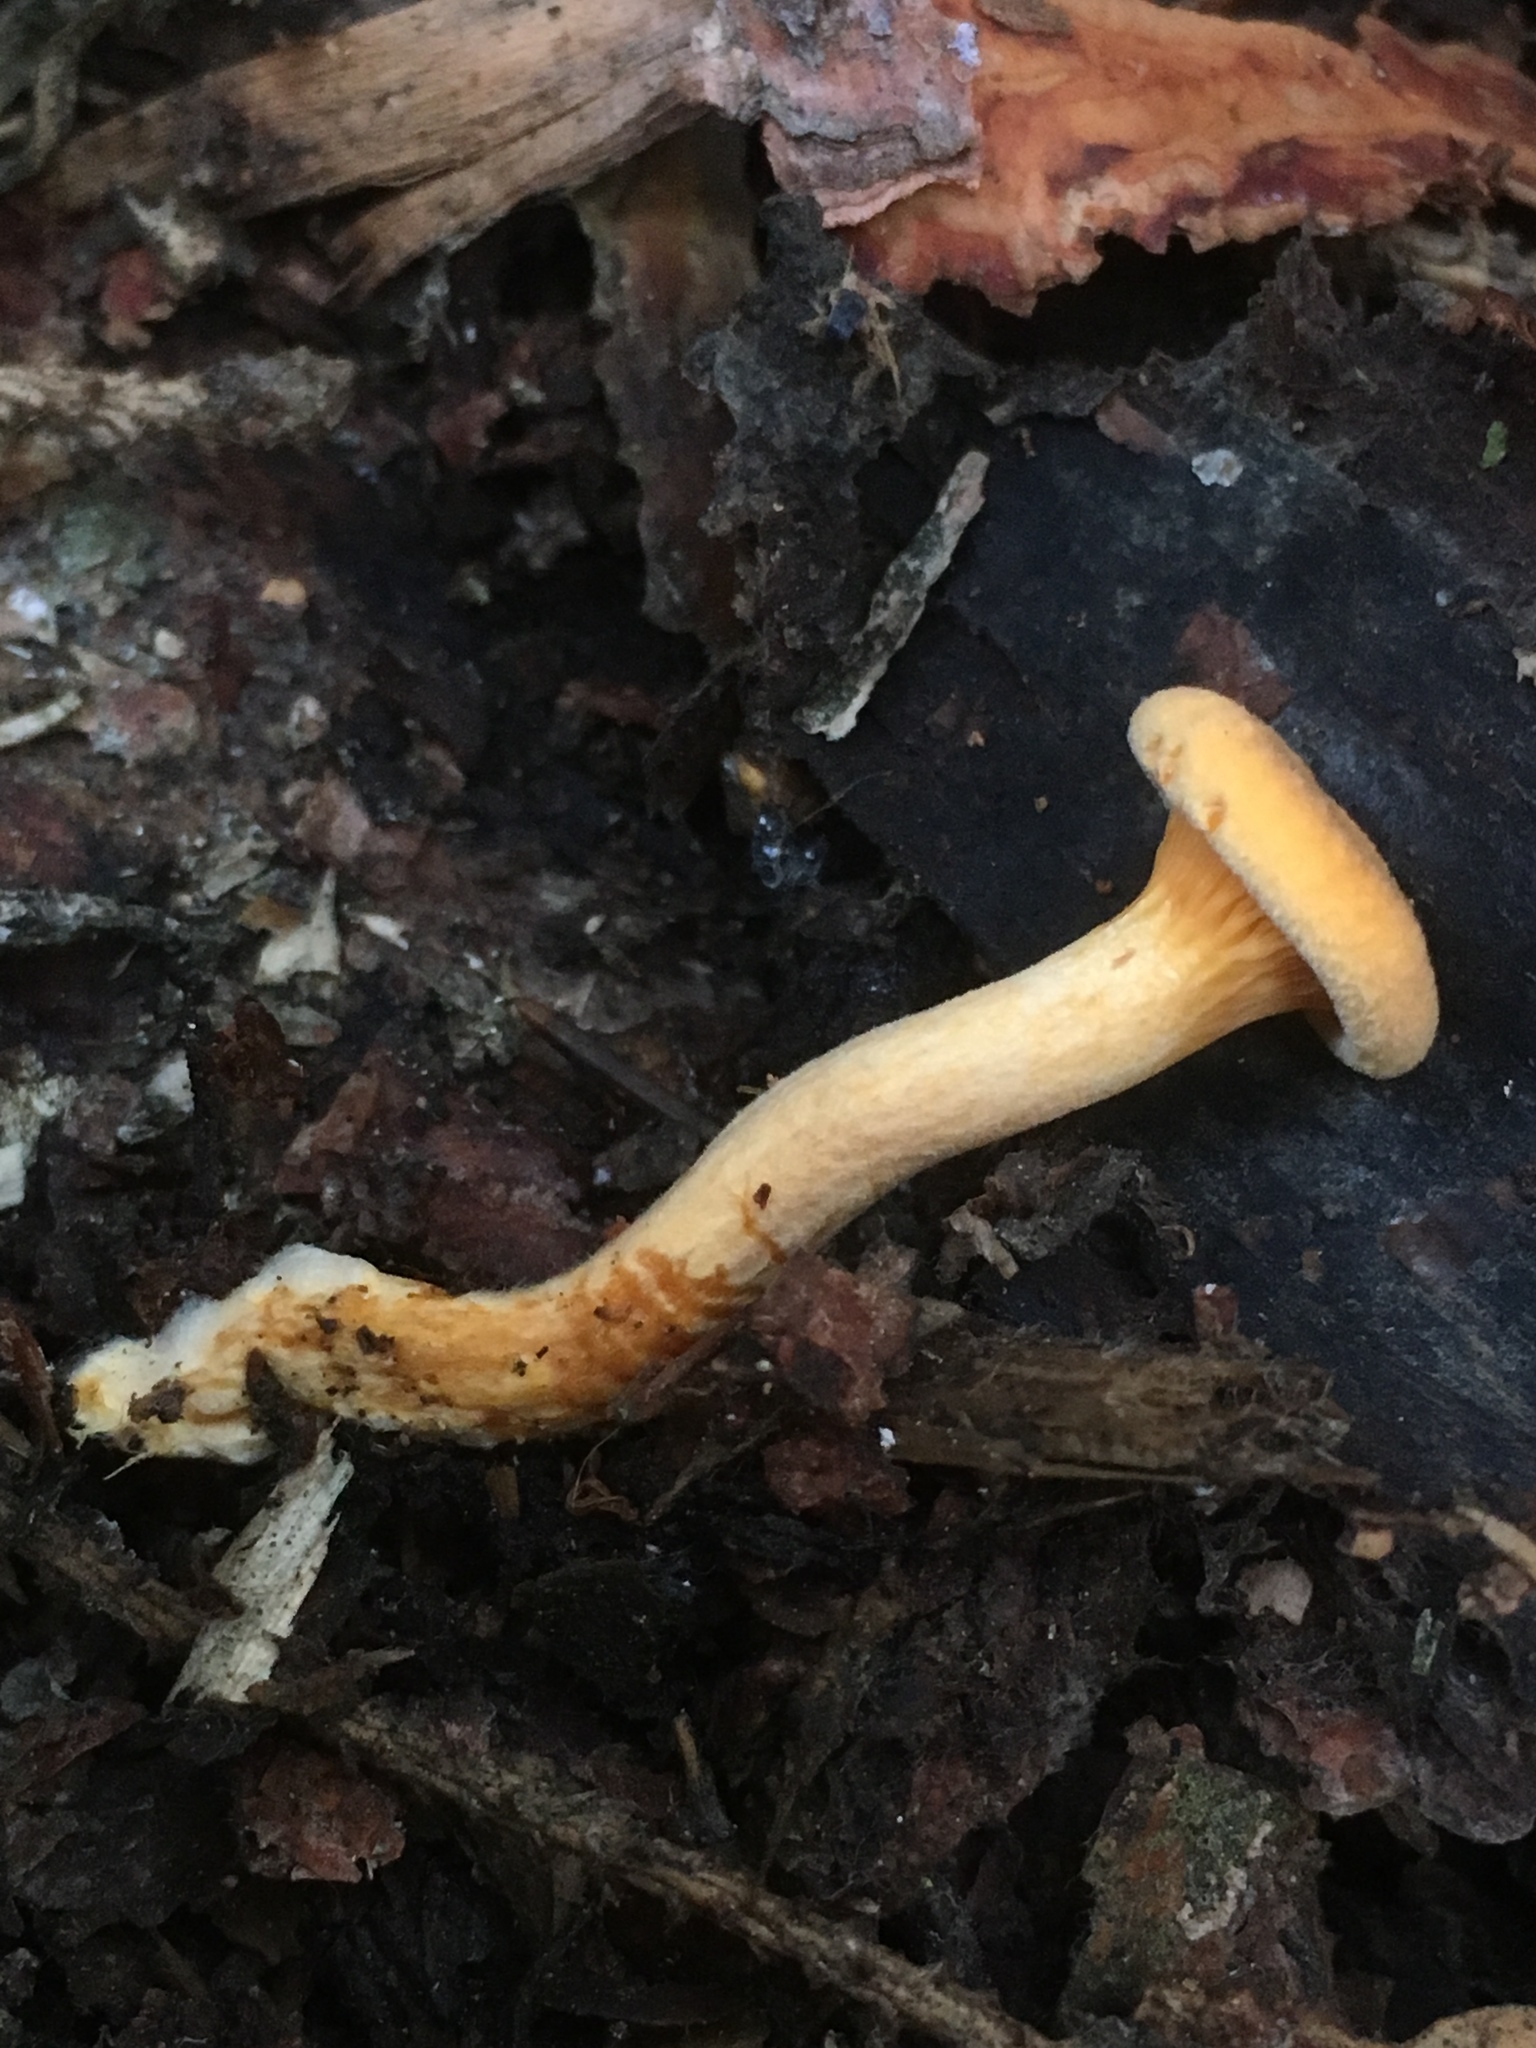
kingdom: Fungi
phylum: Basidiomycota
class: Agaricomycetes
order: Boletales
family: Hygrophoropsidaceae
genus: Hygrophoropsis
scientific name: Hygrophoropsis aurantiaca
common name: False chanterelle
